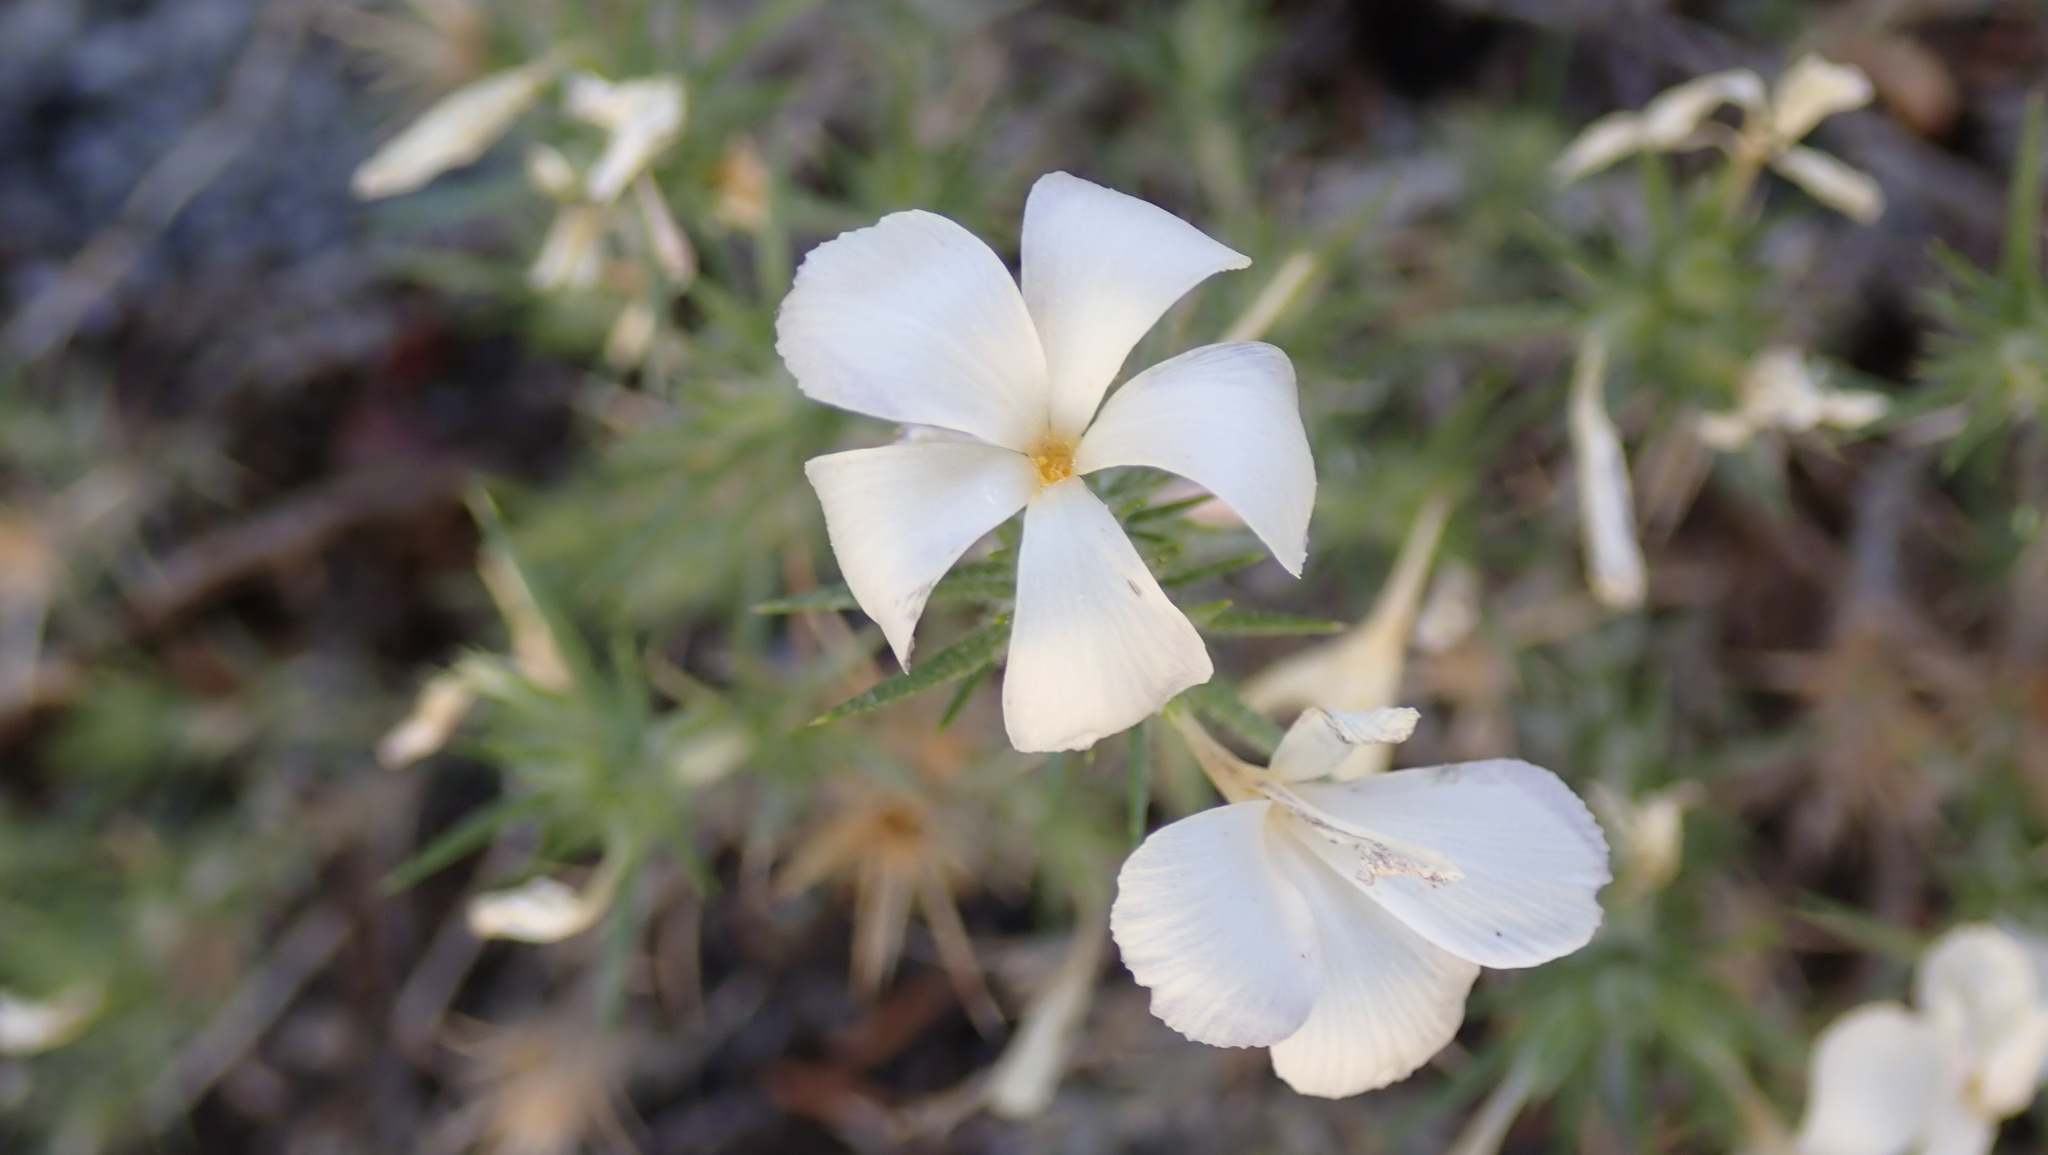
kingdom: Plantae
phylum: Tracheophyta
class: Magnoliopsida
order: Ericales
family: Polemoniaceae
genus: Linanthus
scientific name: Linanthus pungens
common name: Granite prickly phlox
